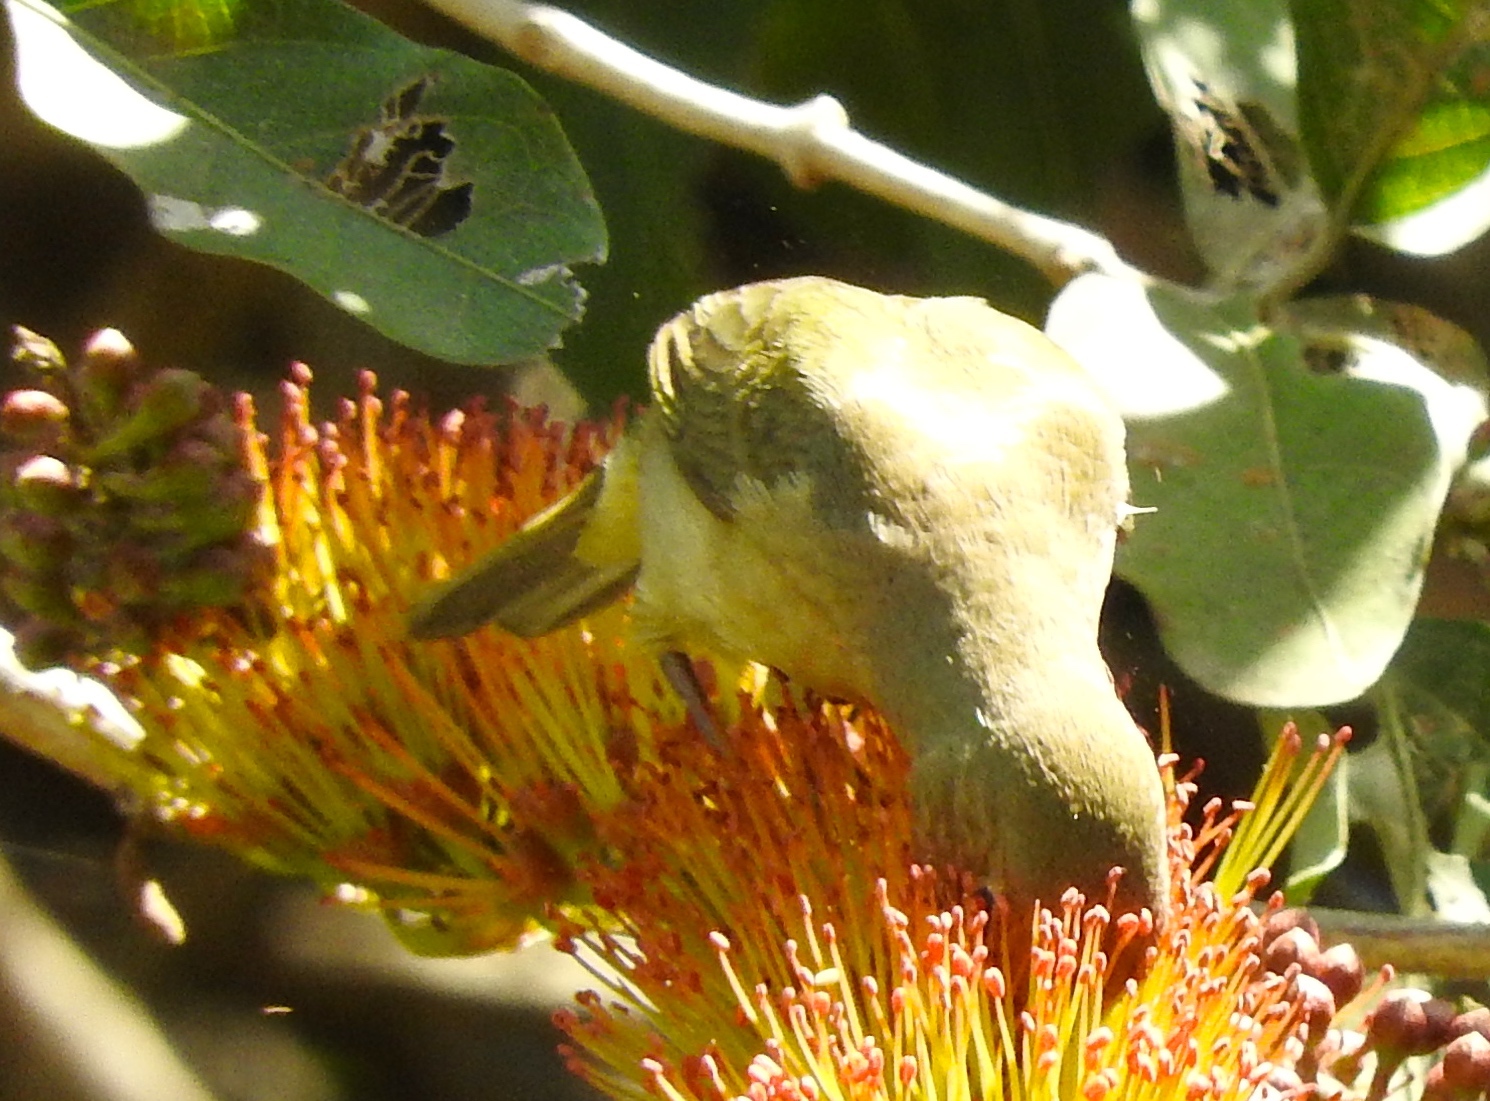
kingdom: Animalia
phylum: Chordata
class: Aves
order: Passeriformes
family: Parulidae
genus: Leiothlypis
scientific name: Leiothlypis celata
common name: Orange-crowned warbler
